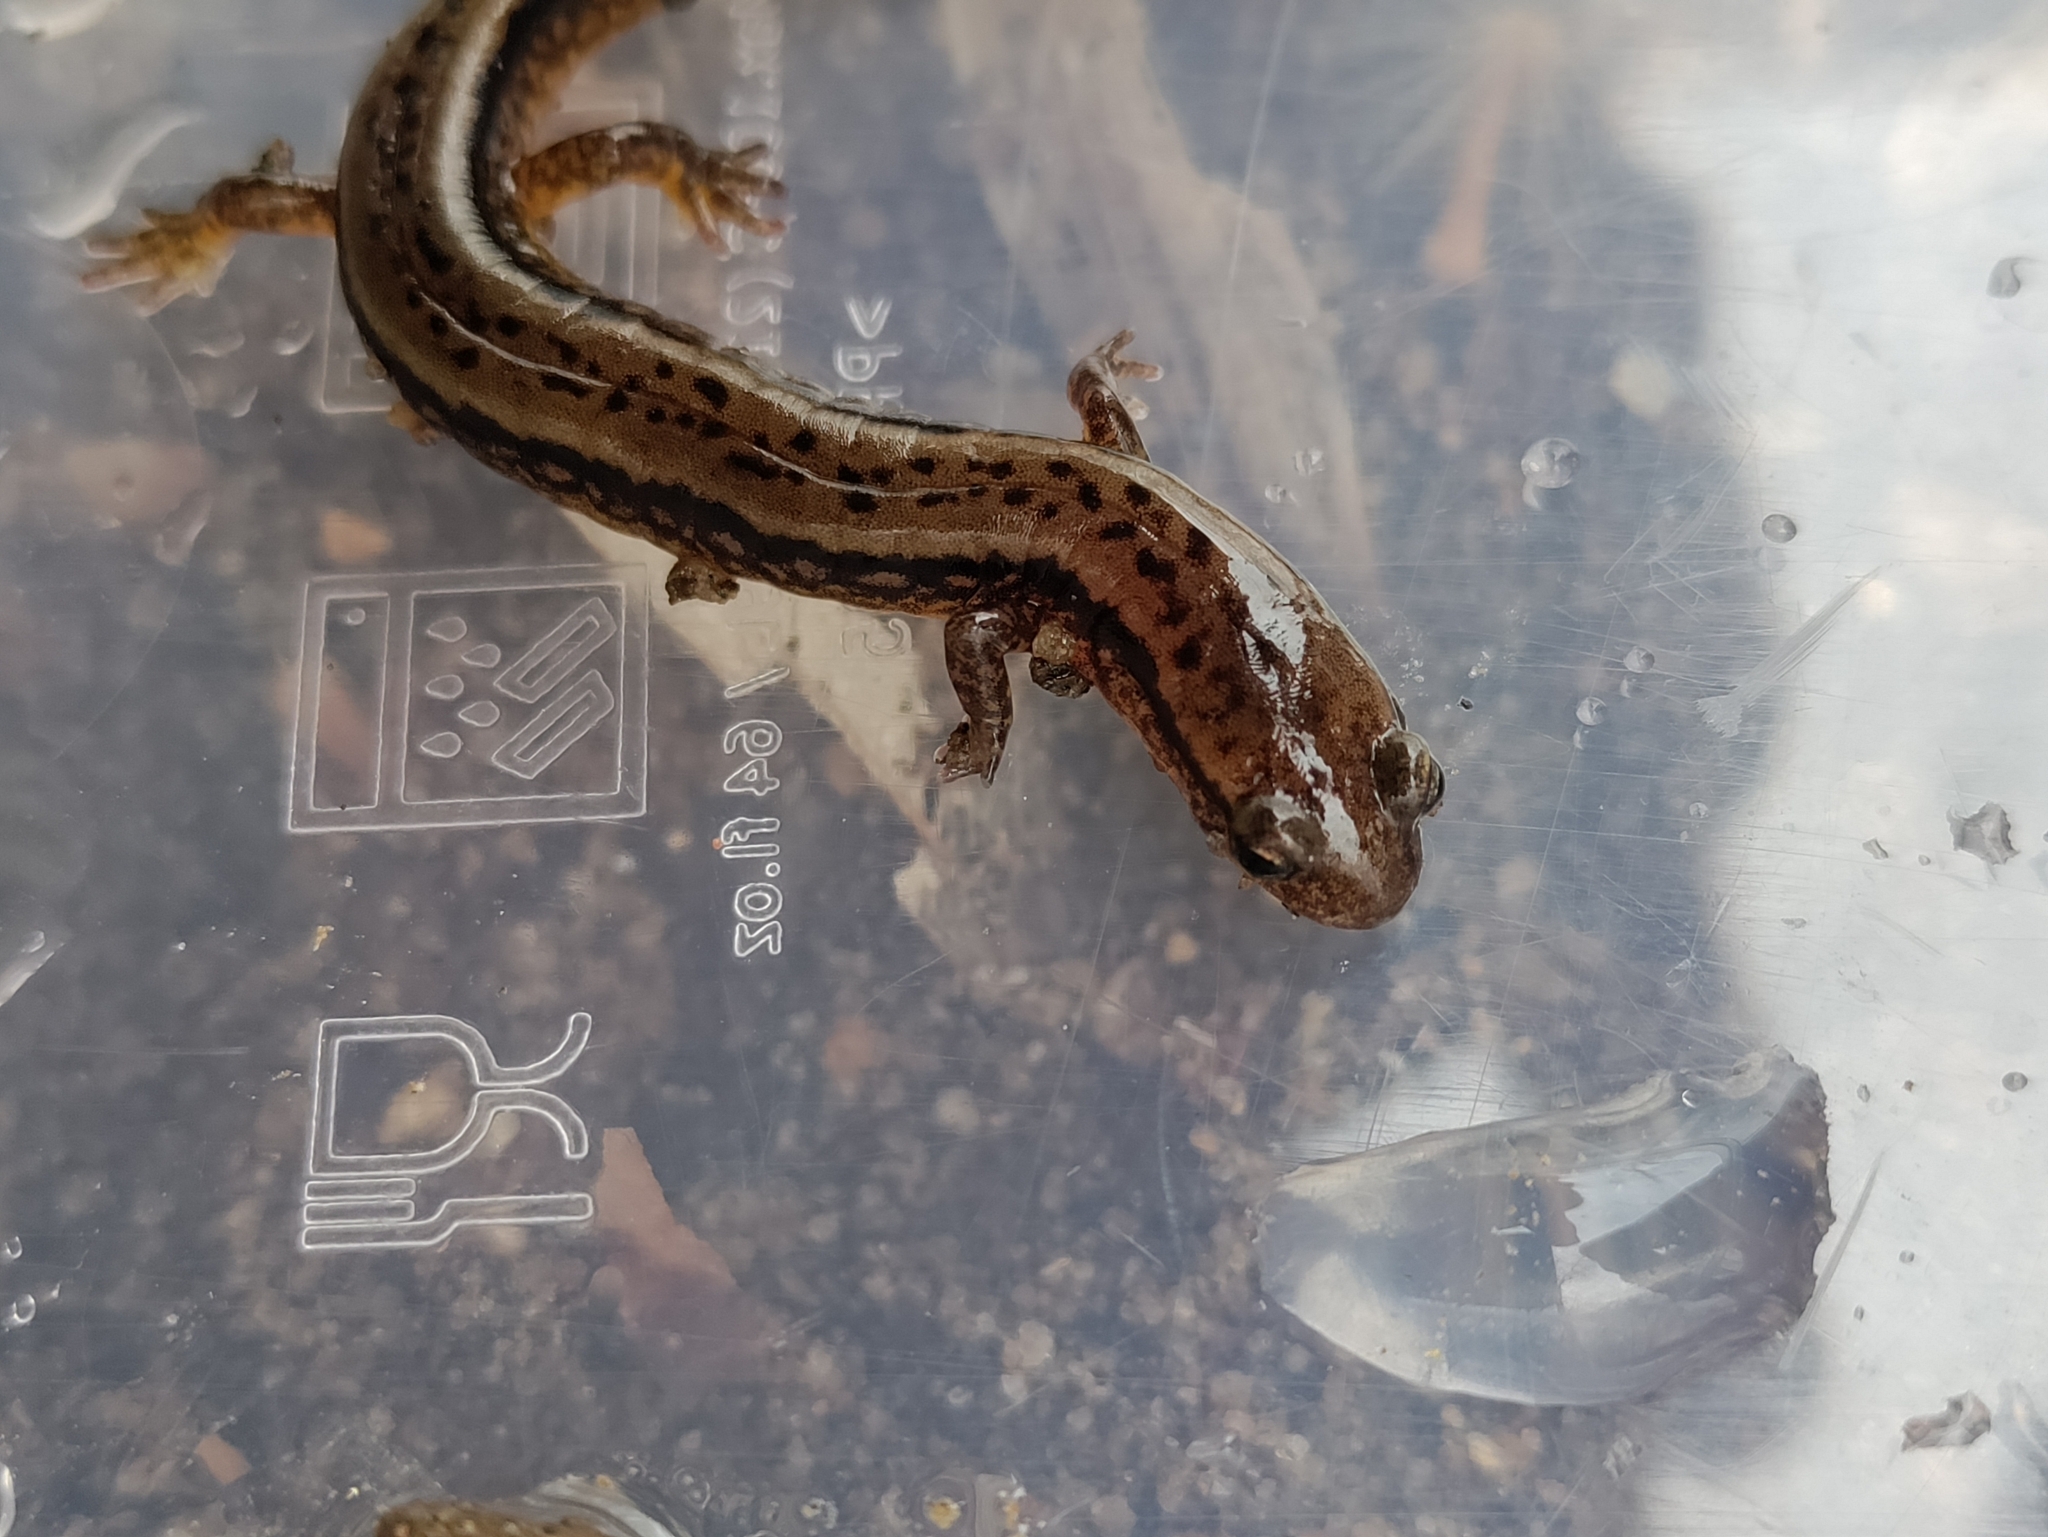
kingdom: Animalia
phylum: Chordata
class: Amphibia
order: Caudata
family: Plethodontidae
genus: Eurycea
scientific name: Eurycea bislineata
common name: Northern two-lined salamander
